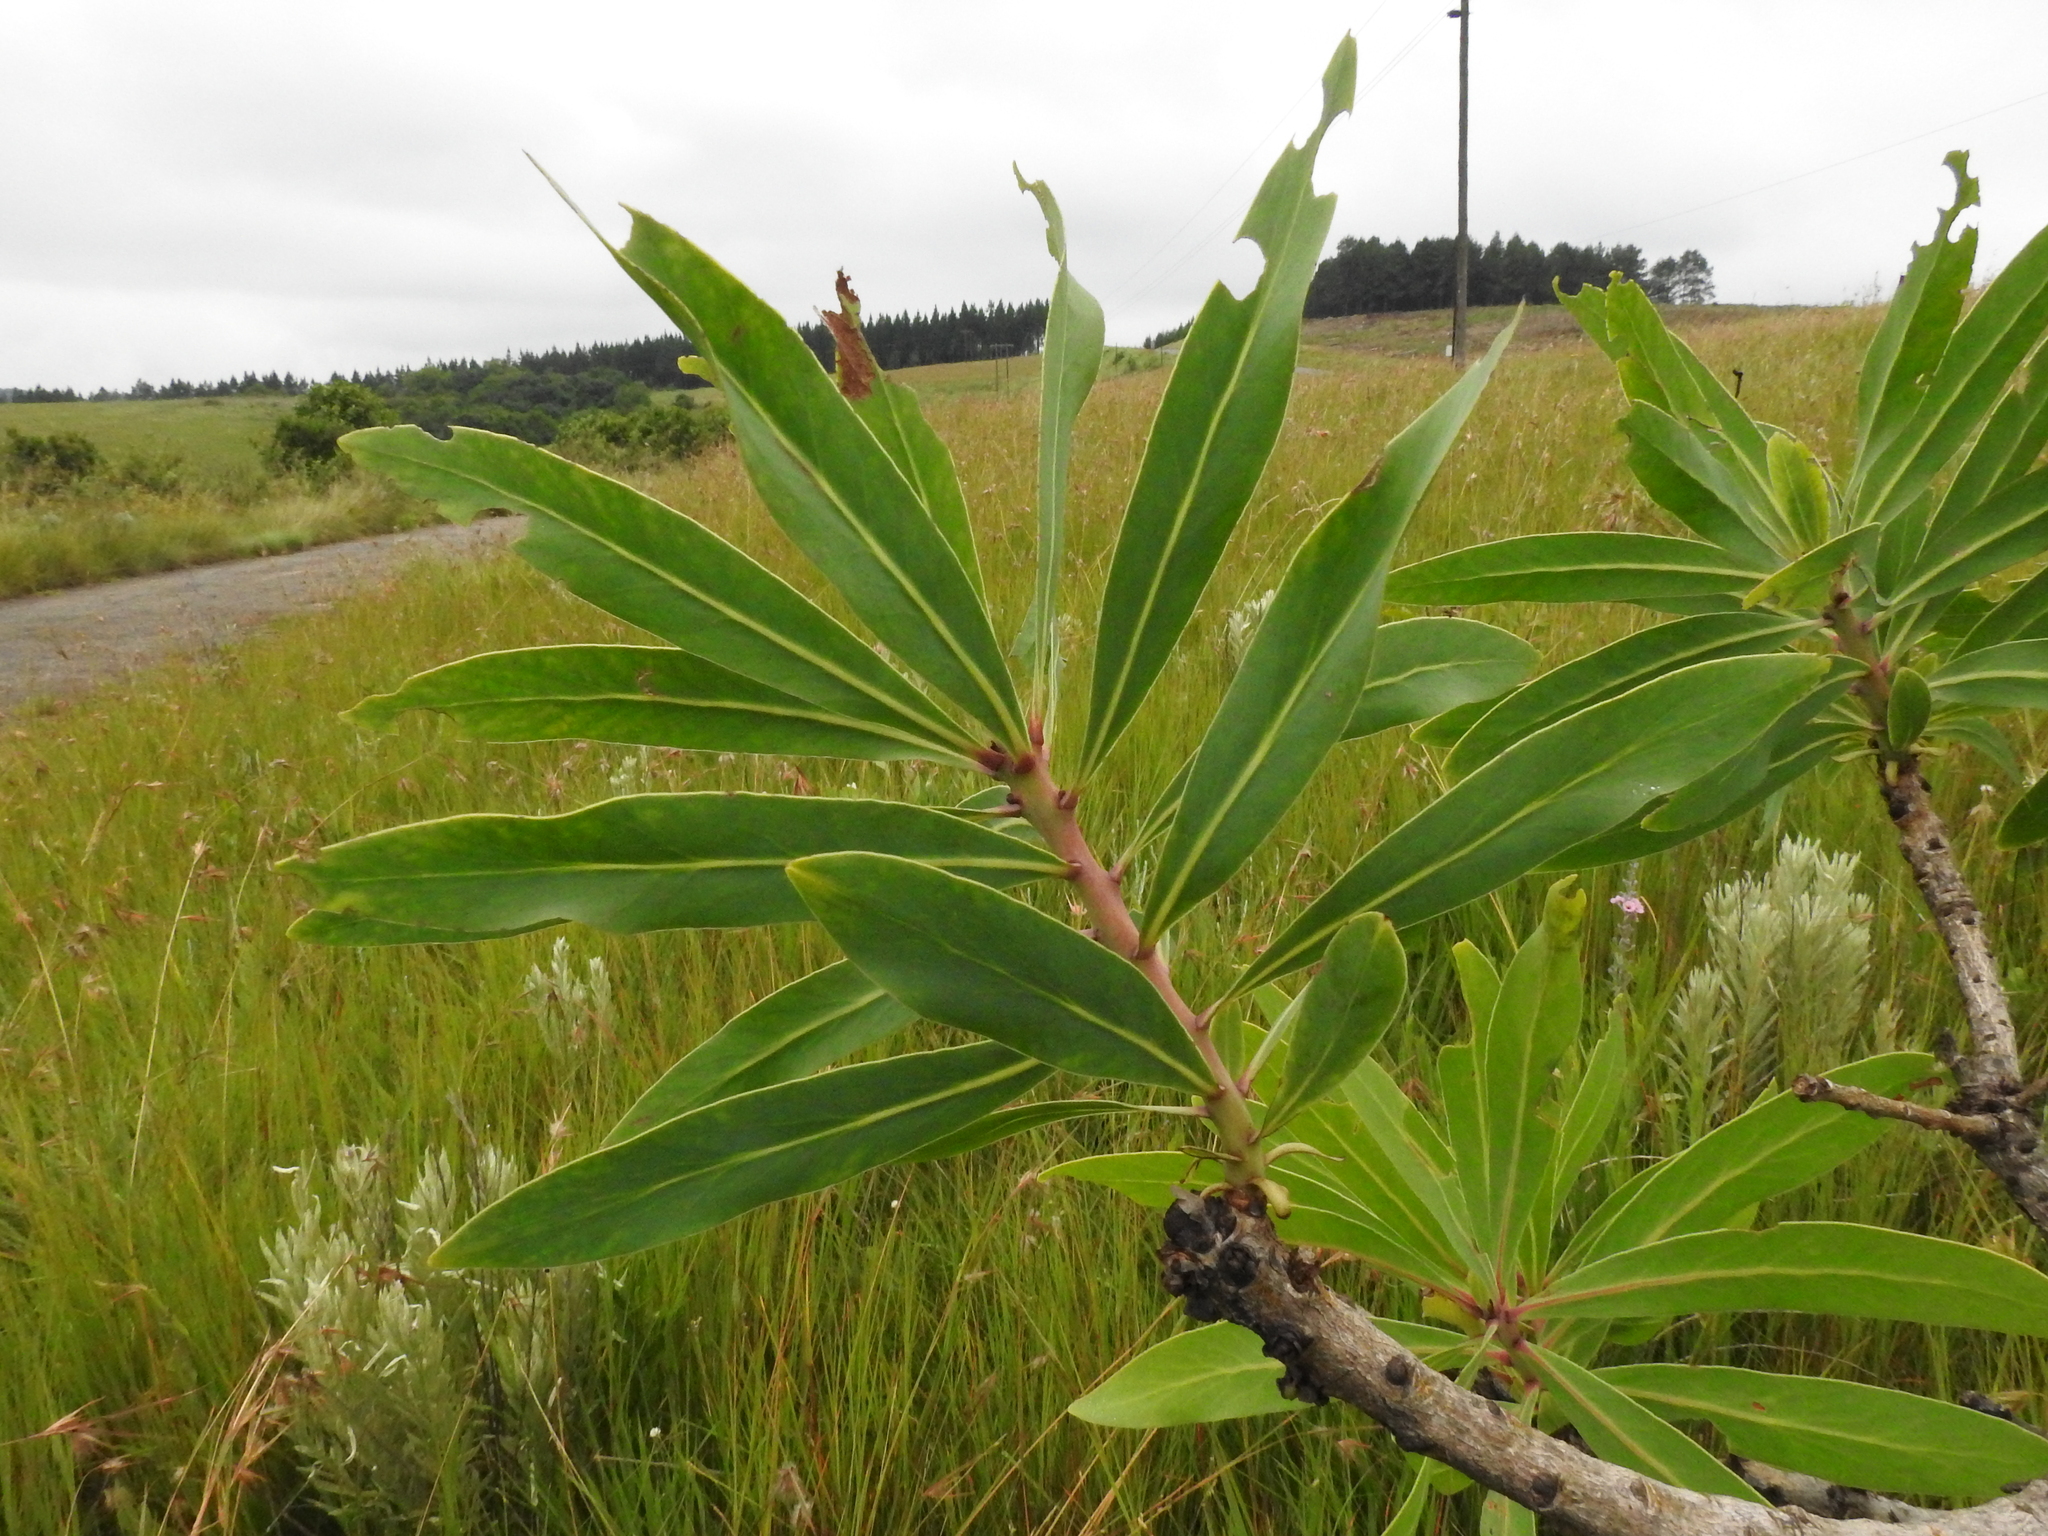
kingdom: Plantae
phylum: Tracheophyta
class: Magnoliopsida
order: Proteales
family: Proteaceae
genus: Protea
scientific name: Protea caffra
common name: Common sugarbush
